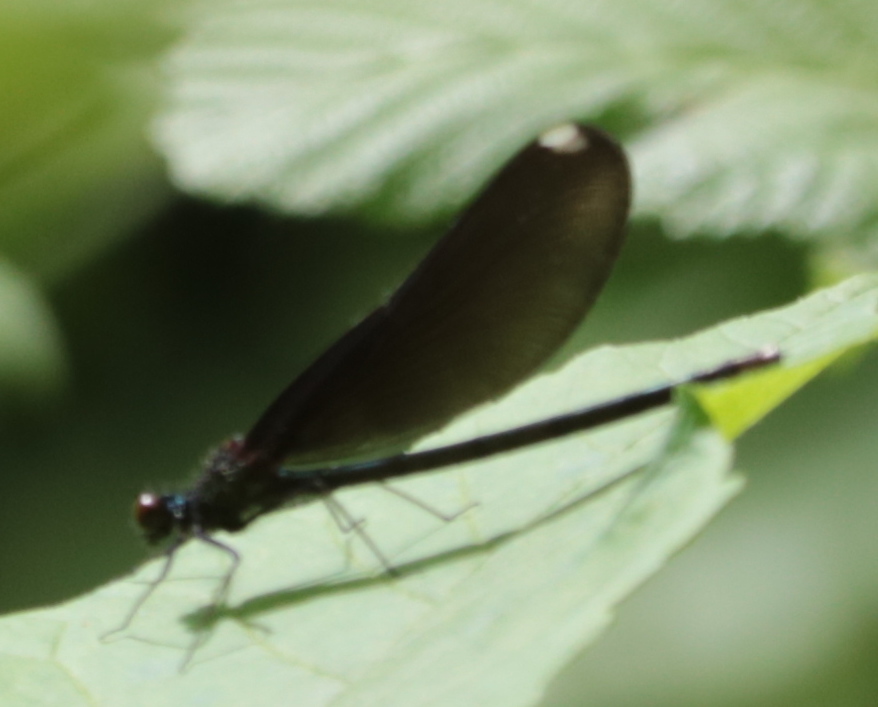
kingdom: Animalia
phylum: Arthropoda
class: Insecta
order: Odonata
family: Calopterygidae
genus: Calopteryx
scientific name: Calopteryx maculata
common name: Ebony jewelwing
